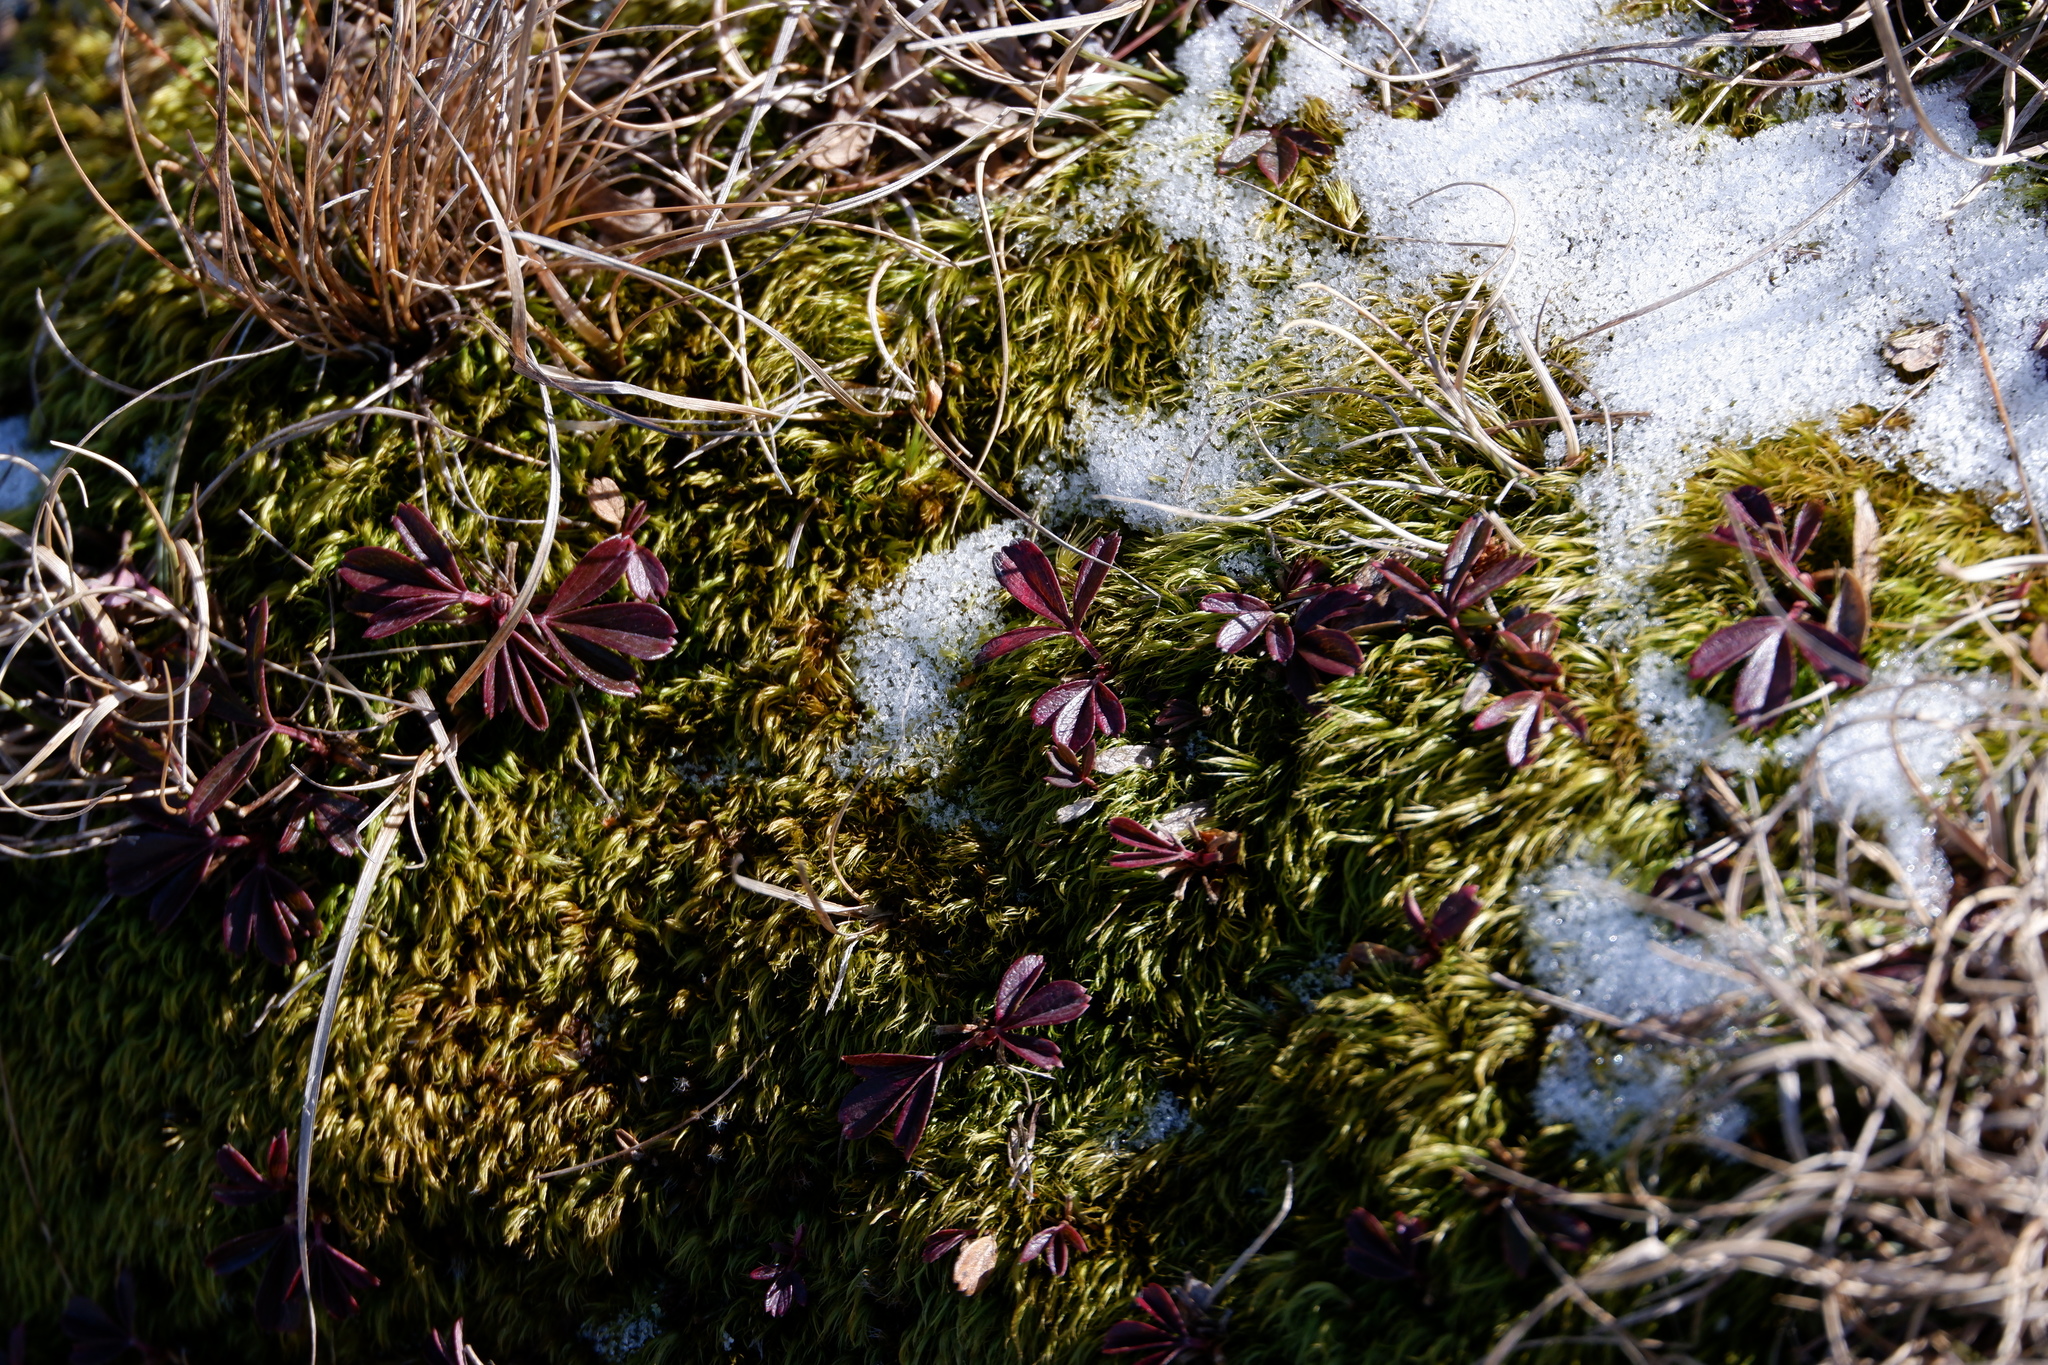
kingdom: Plantae
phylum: Tracheophyta
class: Magnoliopsida
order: Rosales
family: Rosaceae
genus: Sibbaldia
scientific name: Sibbaldia tridentata
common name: Three-toothed cinquefoil
